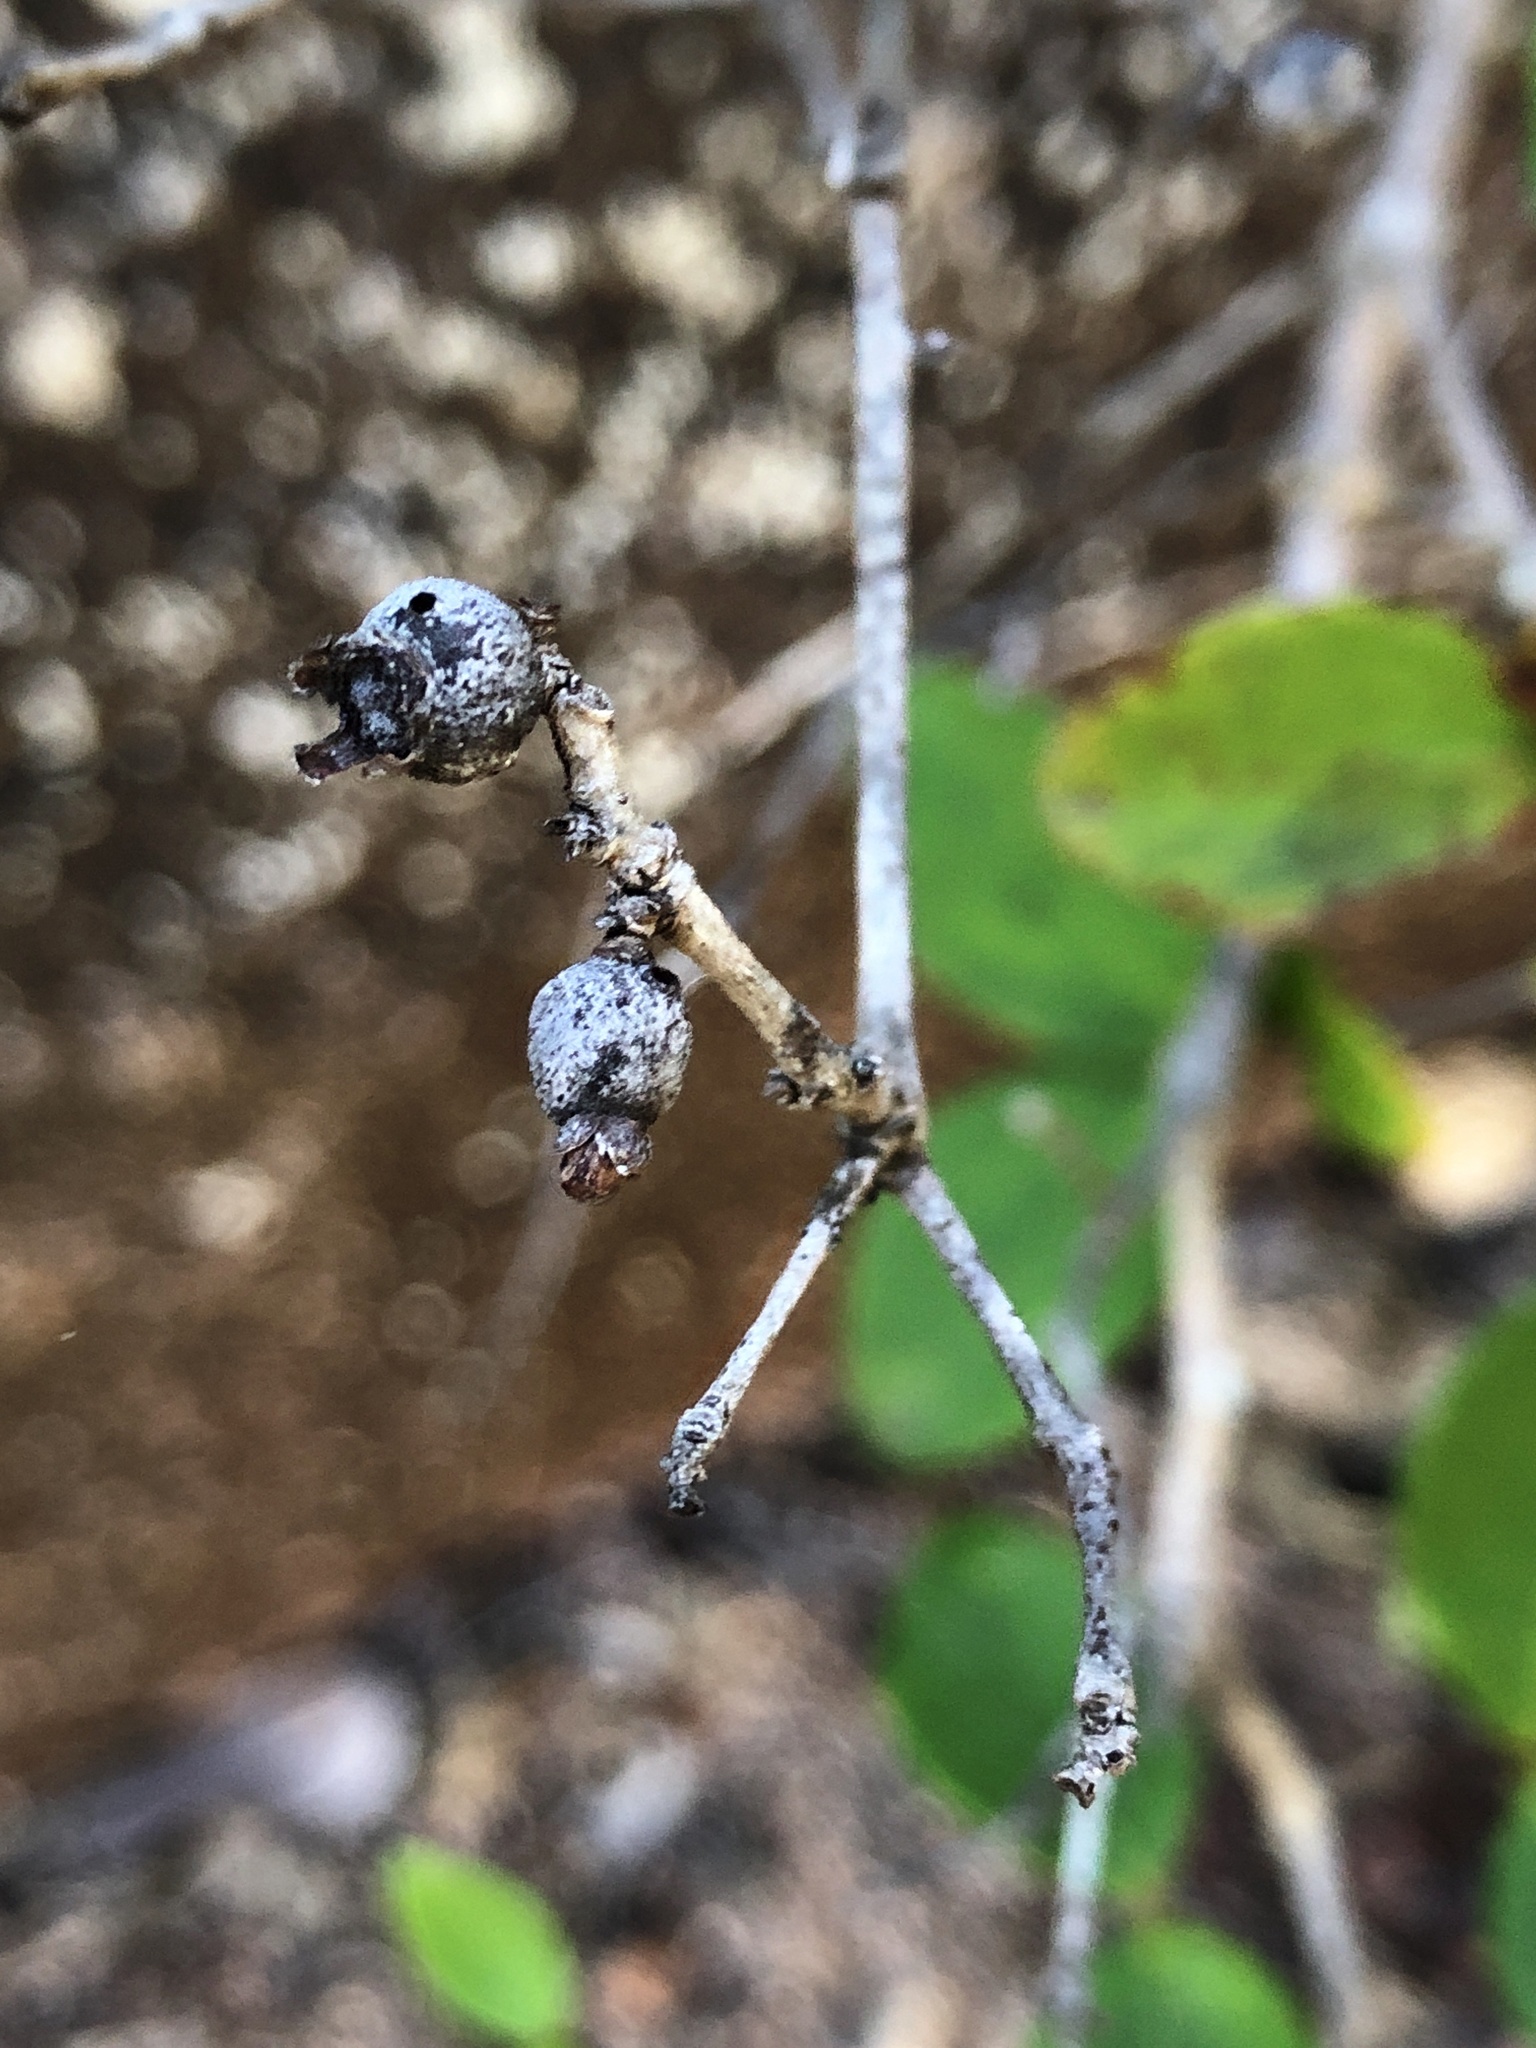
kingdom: Plantae
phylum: Tracheophyta
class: Magnoliopsida
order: Myrtales
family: Myrtaceae
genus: Eugenia
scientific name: Eugenia reinwardtiana
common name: Cedar bay-cherry
